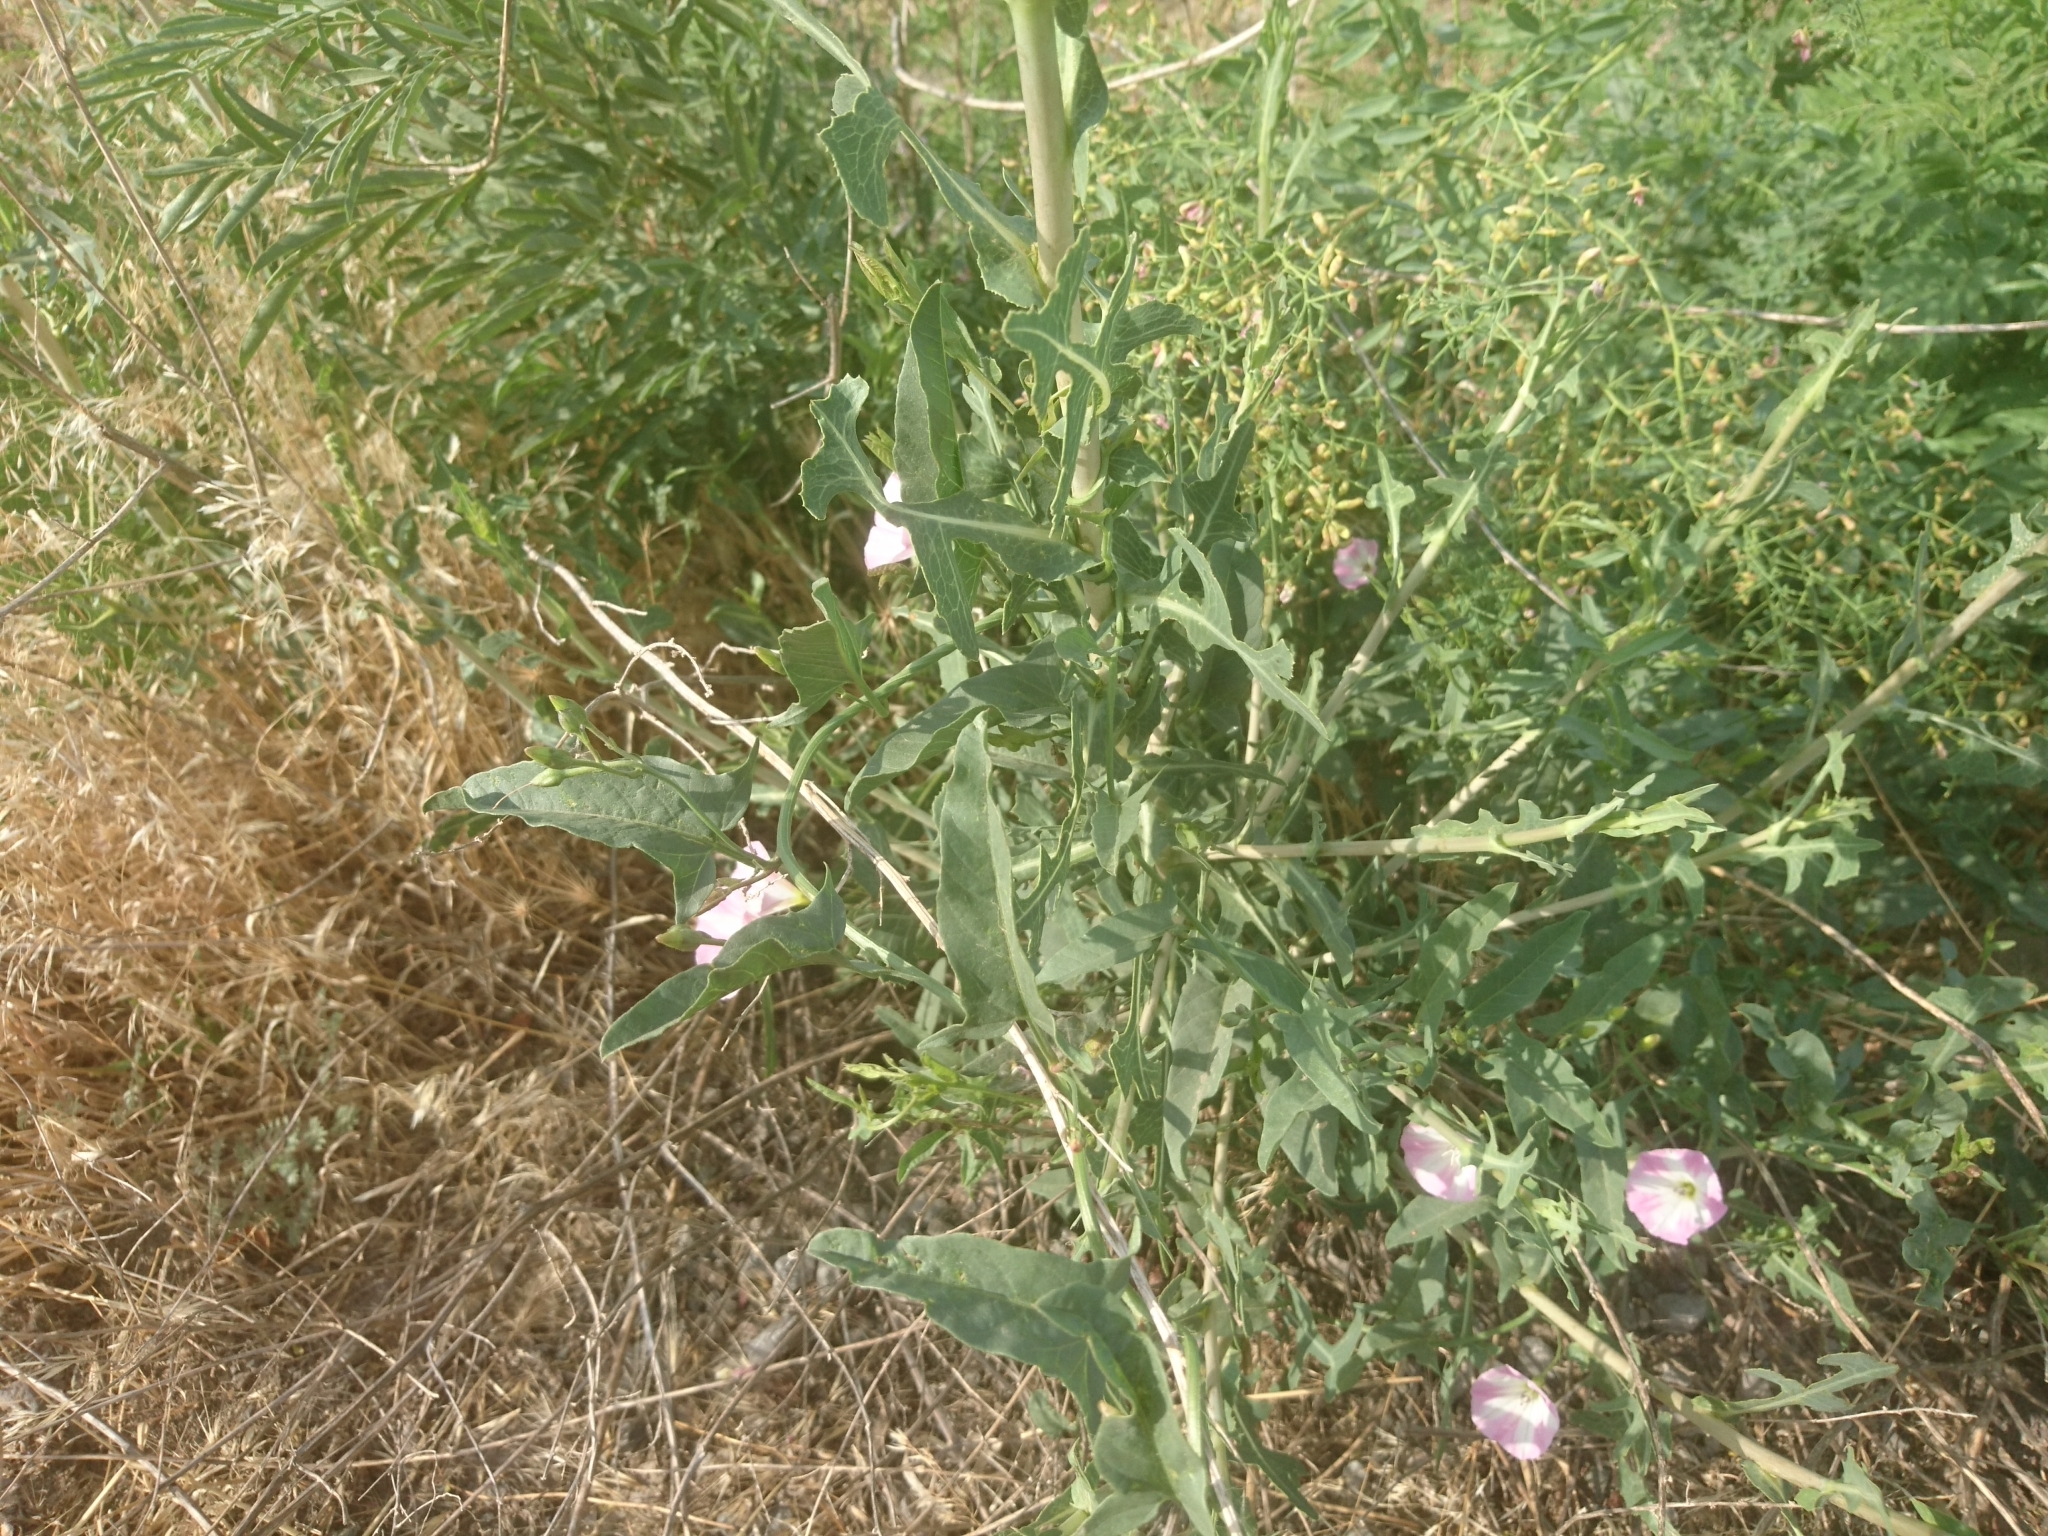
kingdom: Plantae
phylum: Tracheophyta
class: Magnoliopsida
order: Solanales
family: Convolvulaceae
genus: Convolvulus
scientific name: Convolvulus arvensis
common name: Field bindweed
